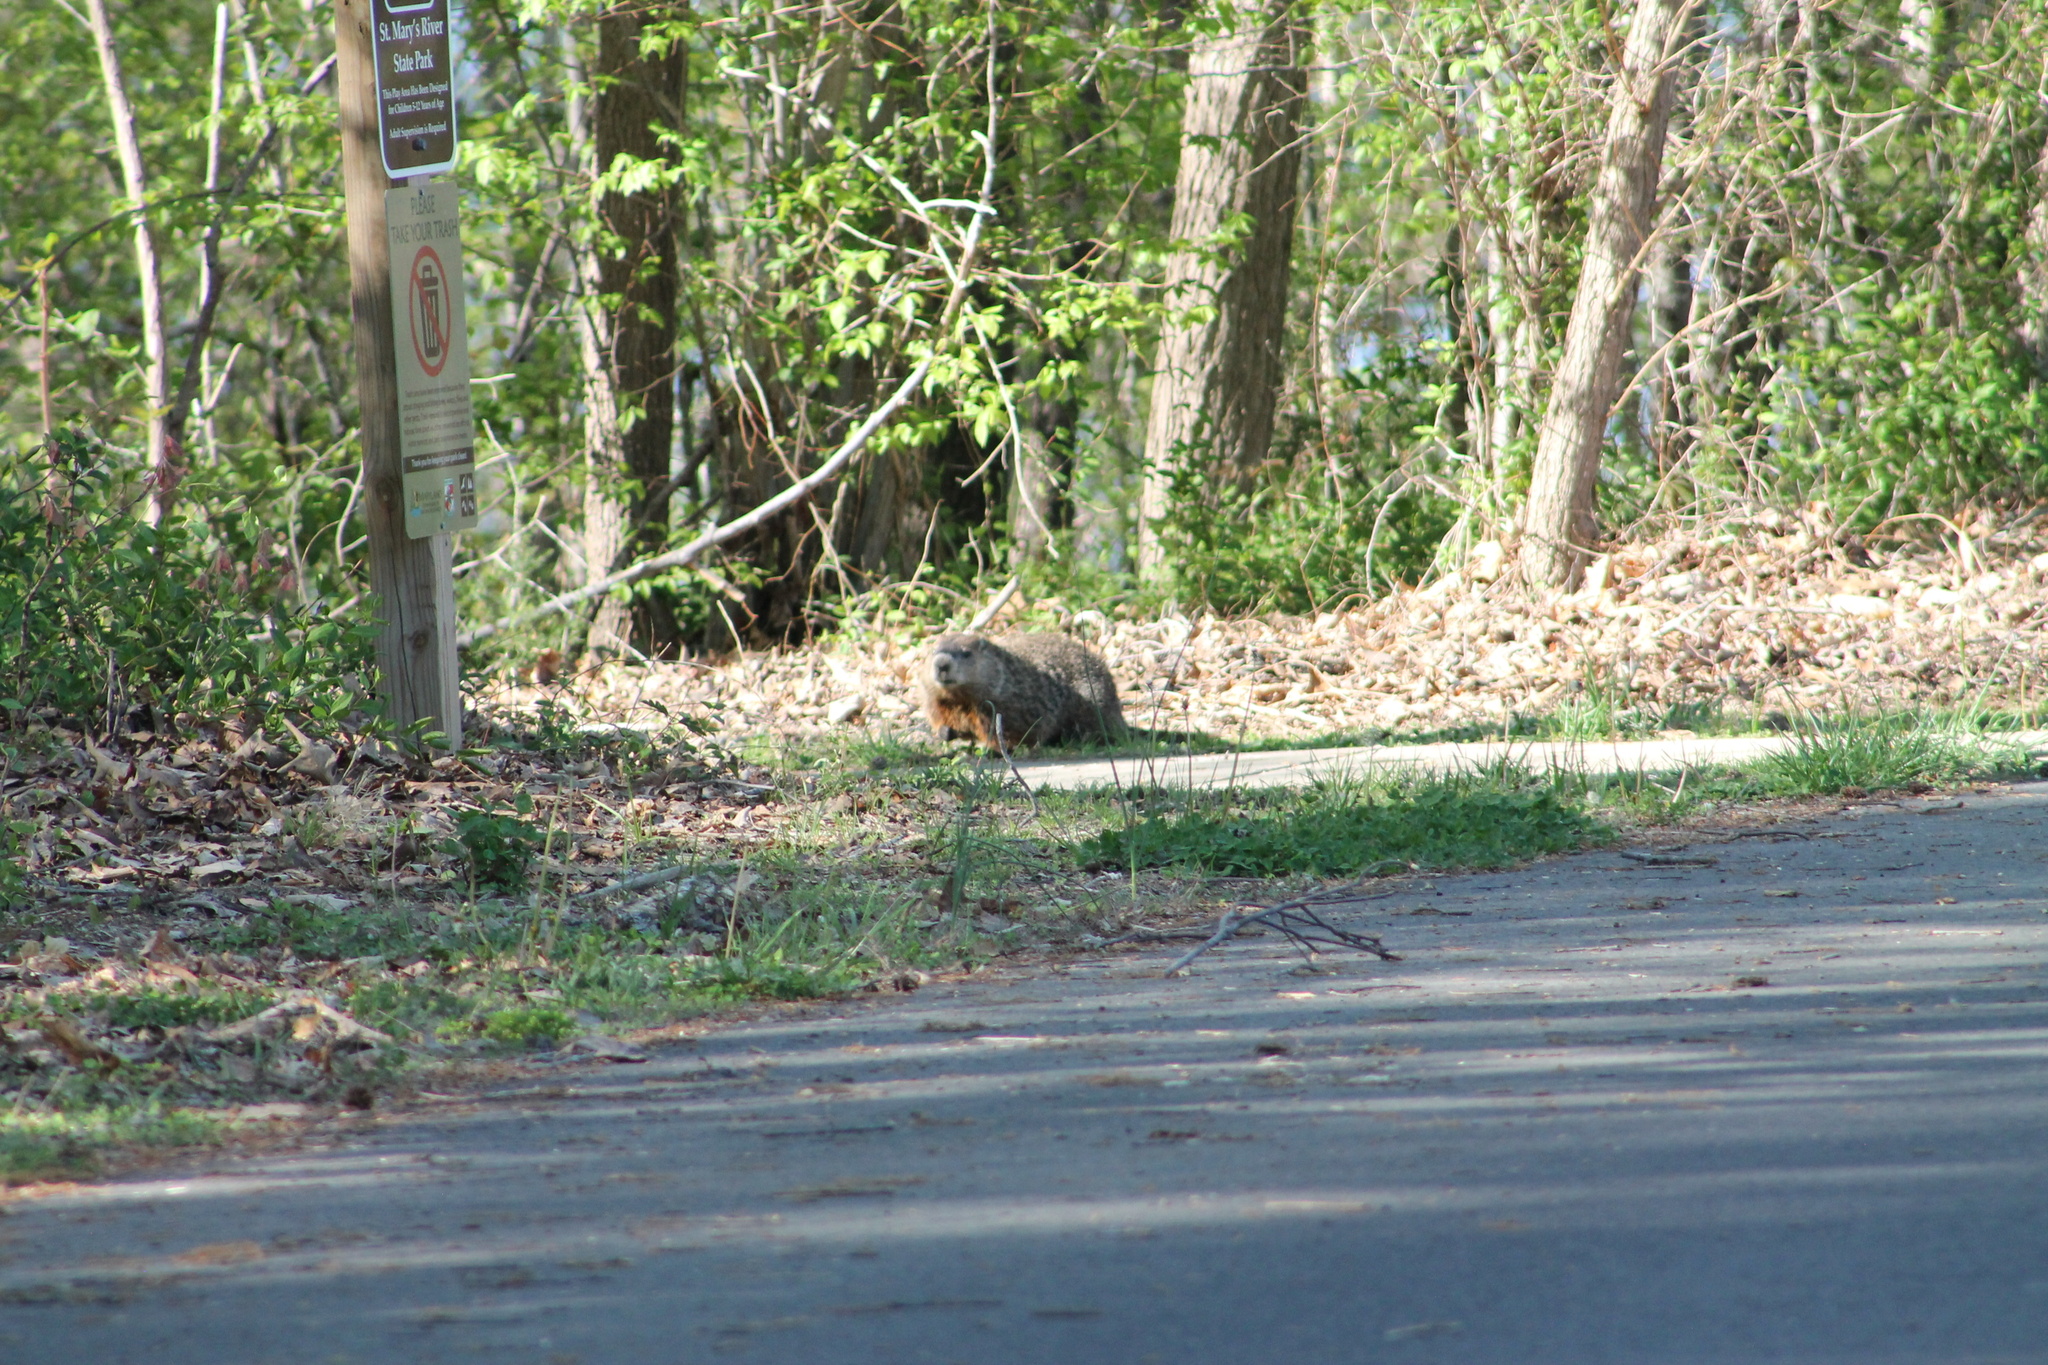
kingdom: Animalia
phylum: Chordata
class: Mammalia
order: Rodentia
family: Sciuridae
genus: Marmota
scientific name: Marmota monax
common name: Groundhog
